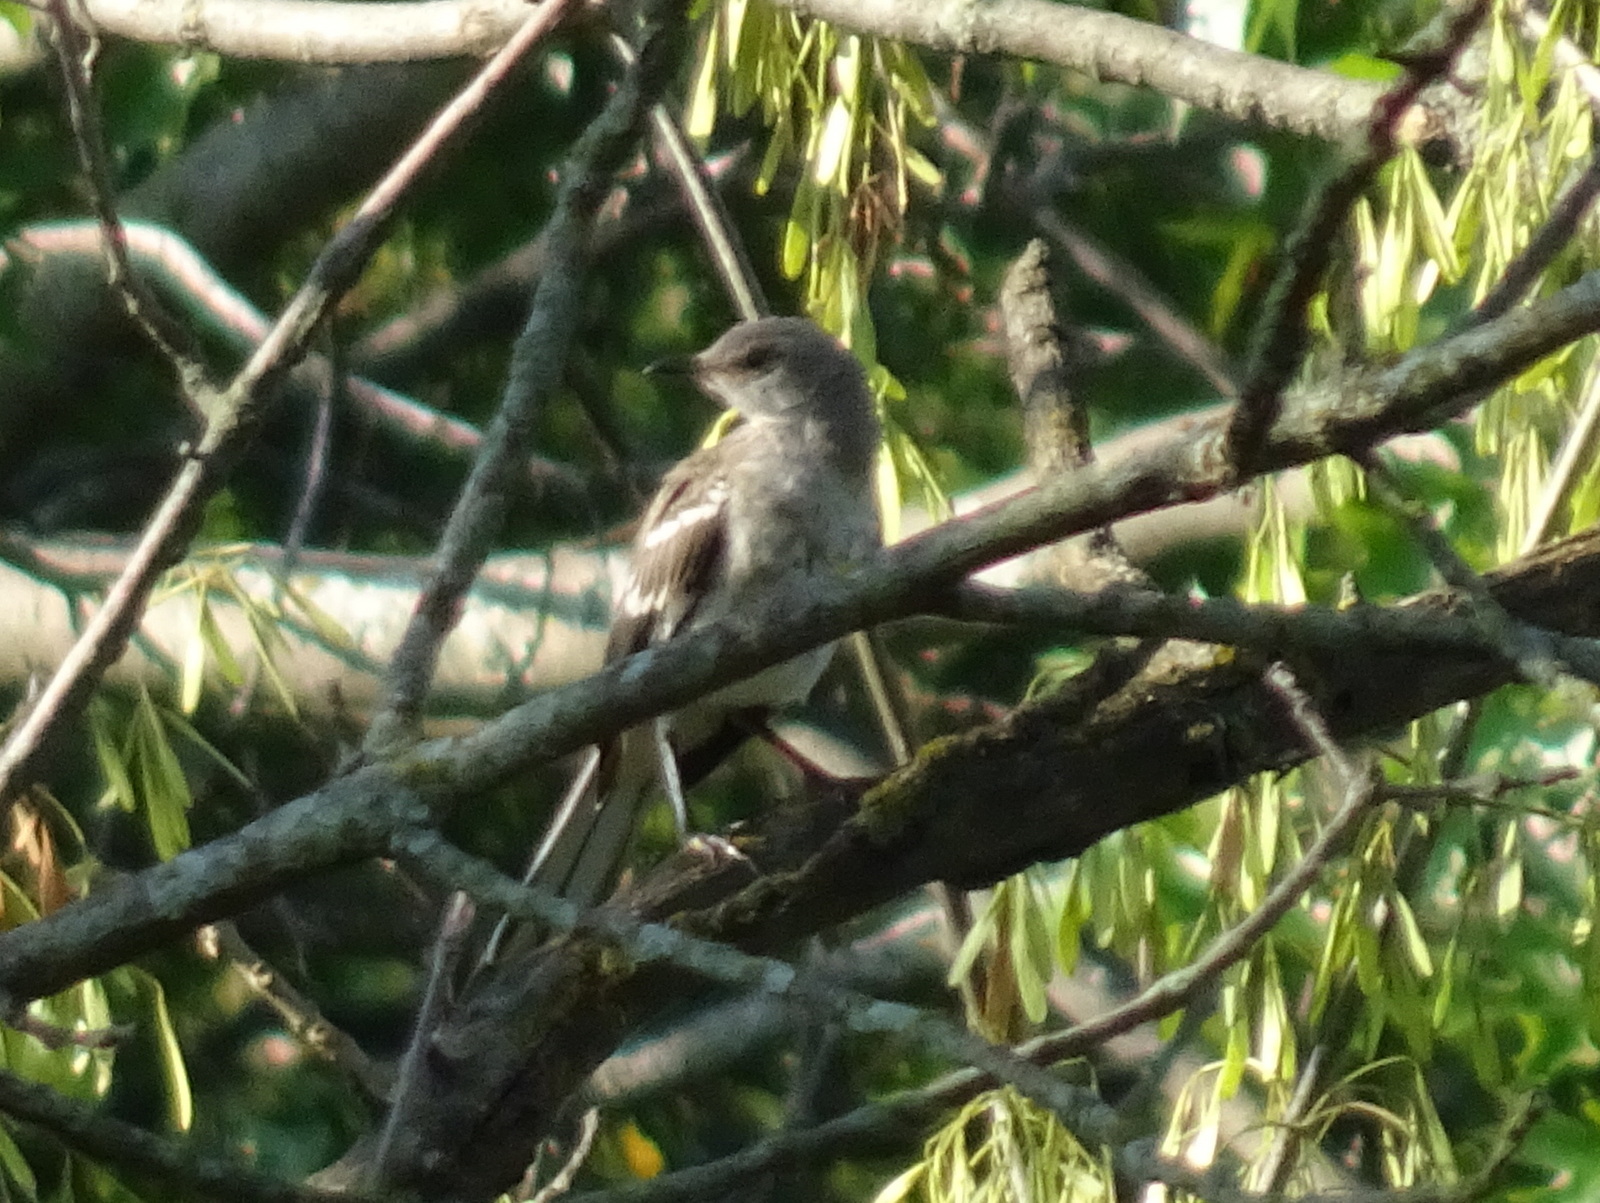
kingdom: Animalia
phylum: Chordata
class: Aves
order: Passeriformes
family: Mimidae
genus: Mimus
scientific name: Mimus polyglottos
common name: Northern mockingbird
